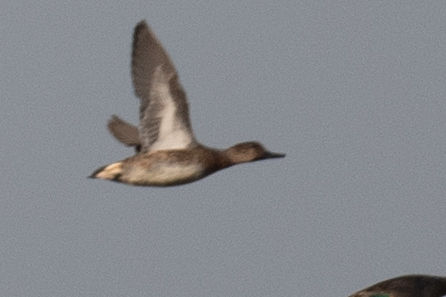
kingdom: Animalia
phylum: Chordata
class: Aves
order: Anseriformes
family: Anatidae
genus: Anas
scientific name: Anas crecca
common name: Eurasian teal
